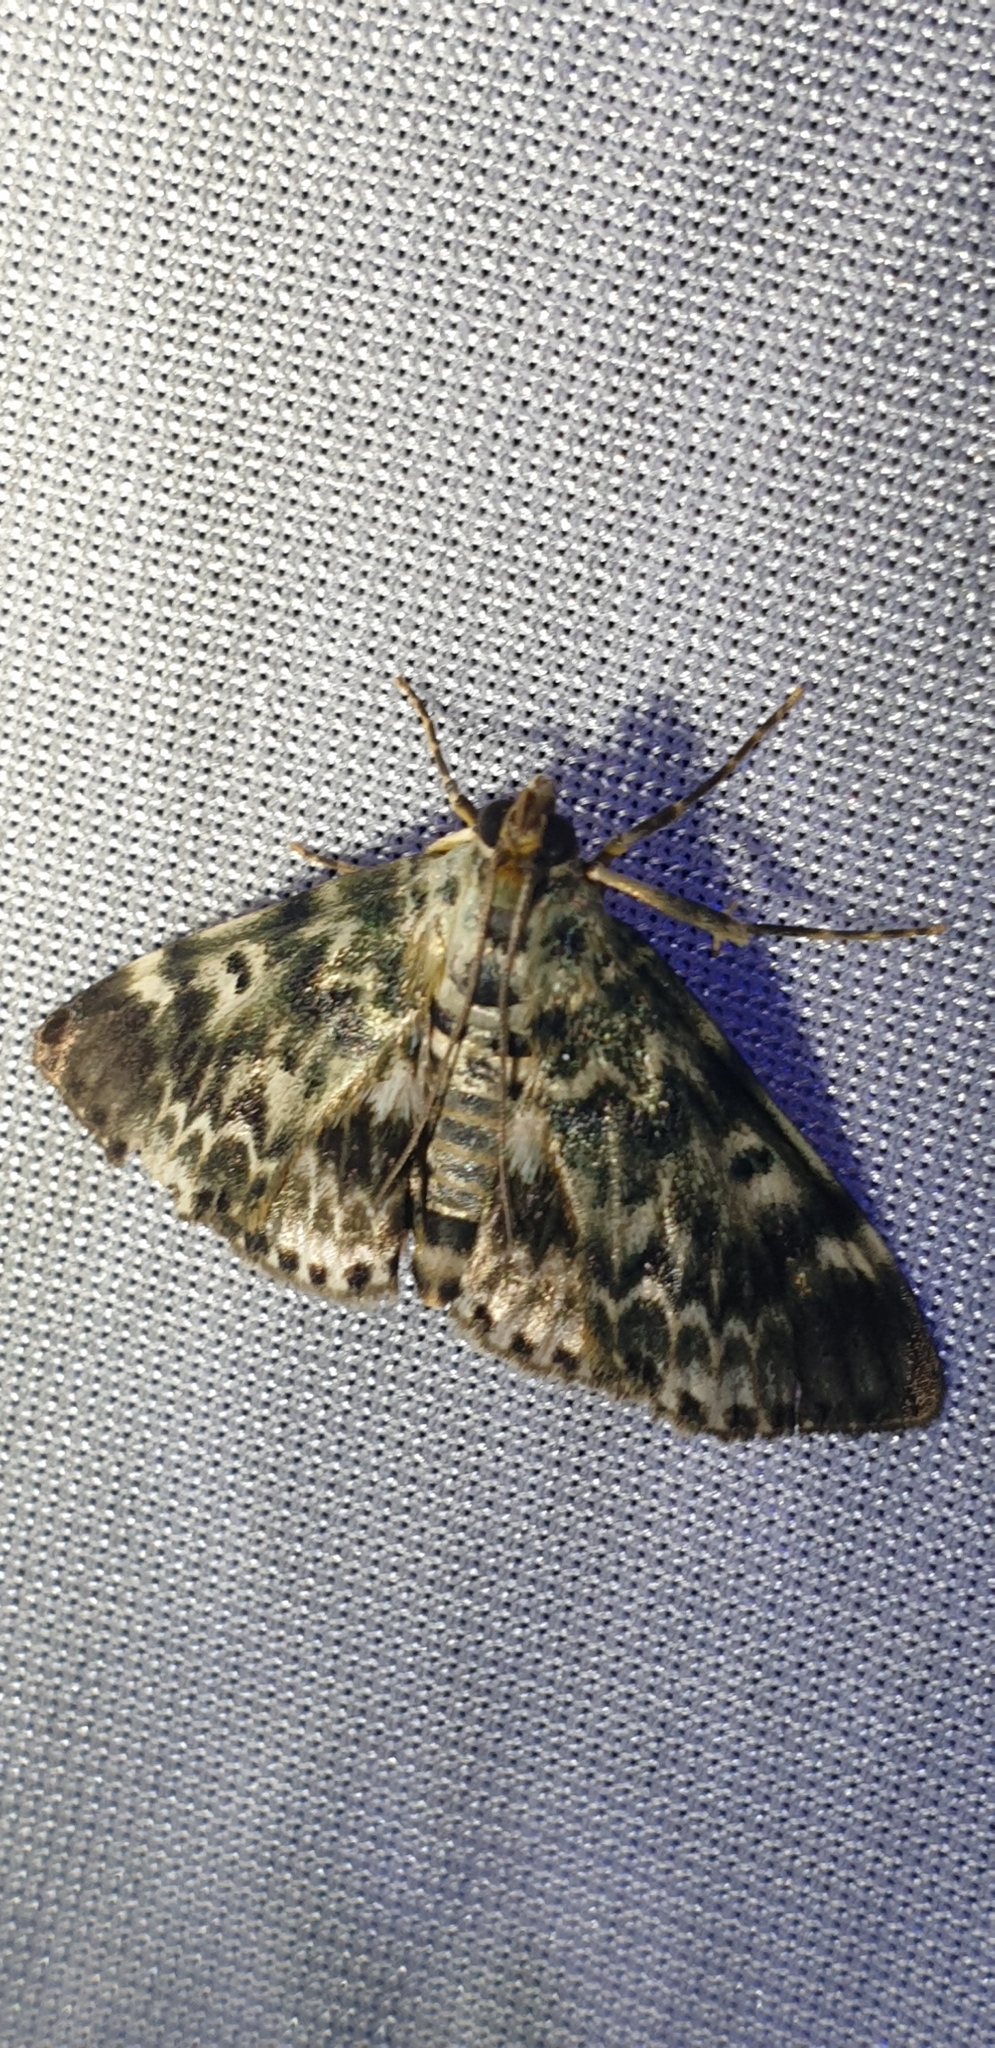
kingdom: Animalia
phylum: Arthropoda
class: Insecta
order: Lepidoptera
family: Pyralidae
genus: Cardamyla
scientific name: Cardamyla didymalis
